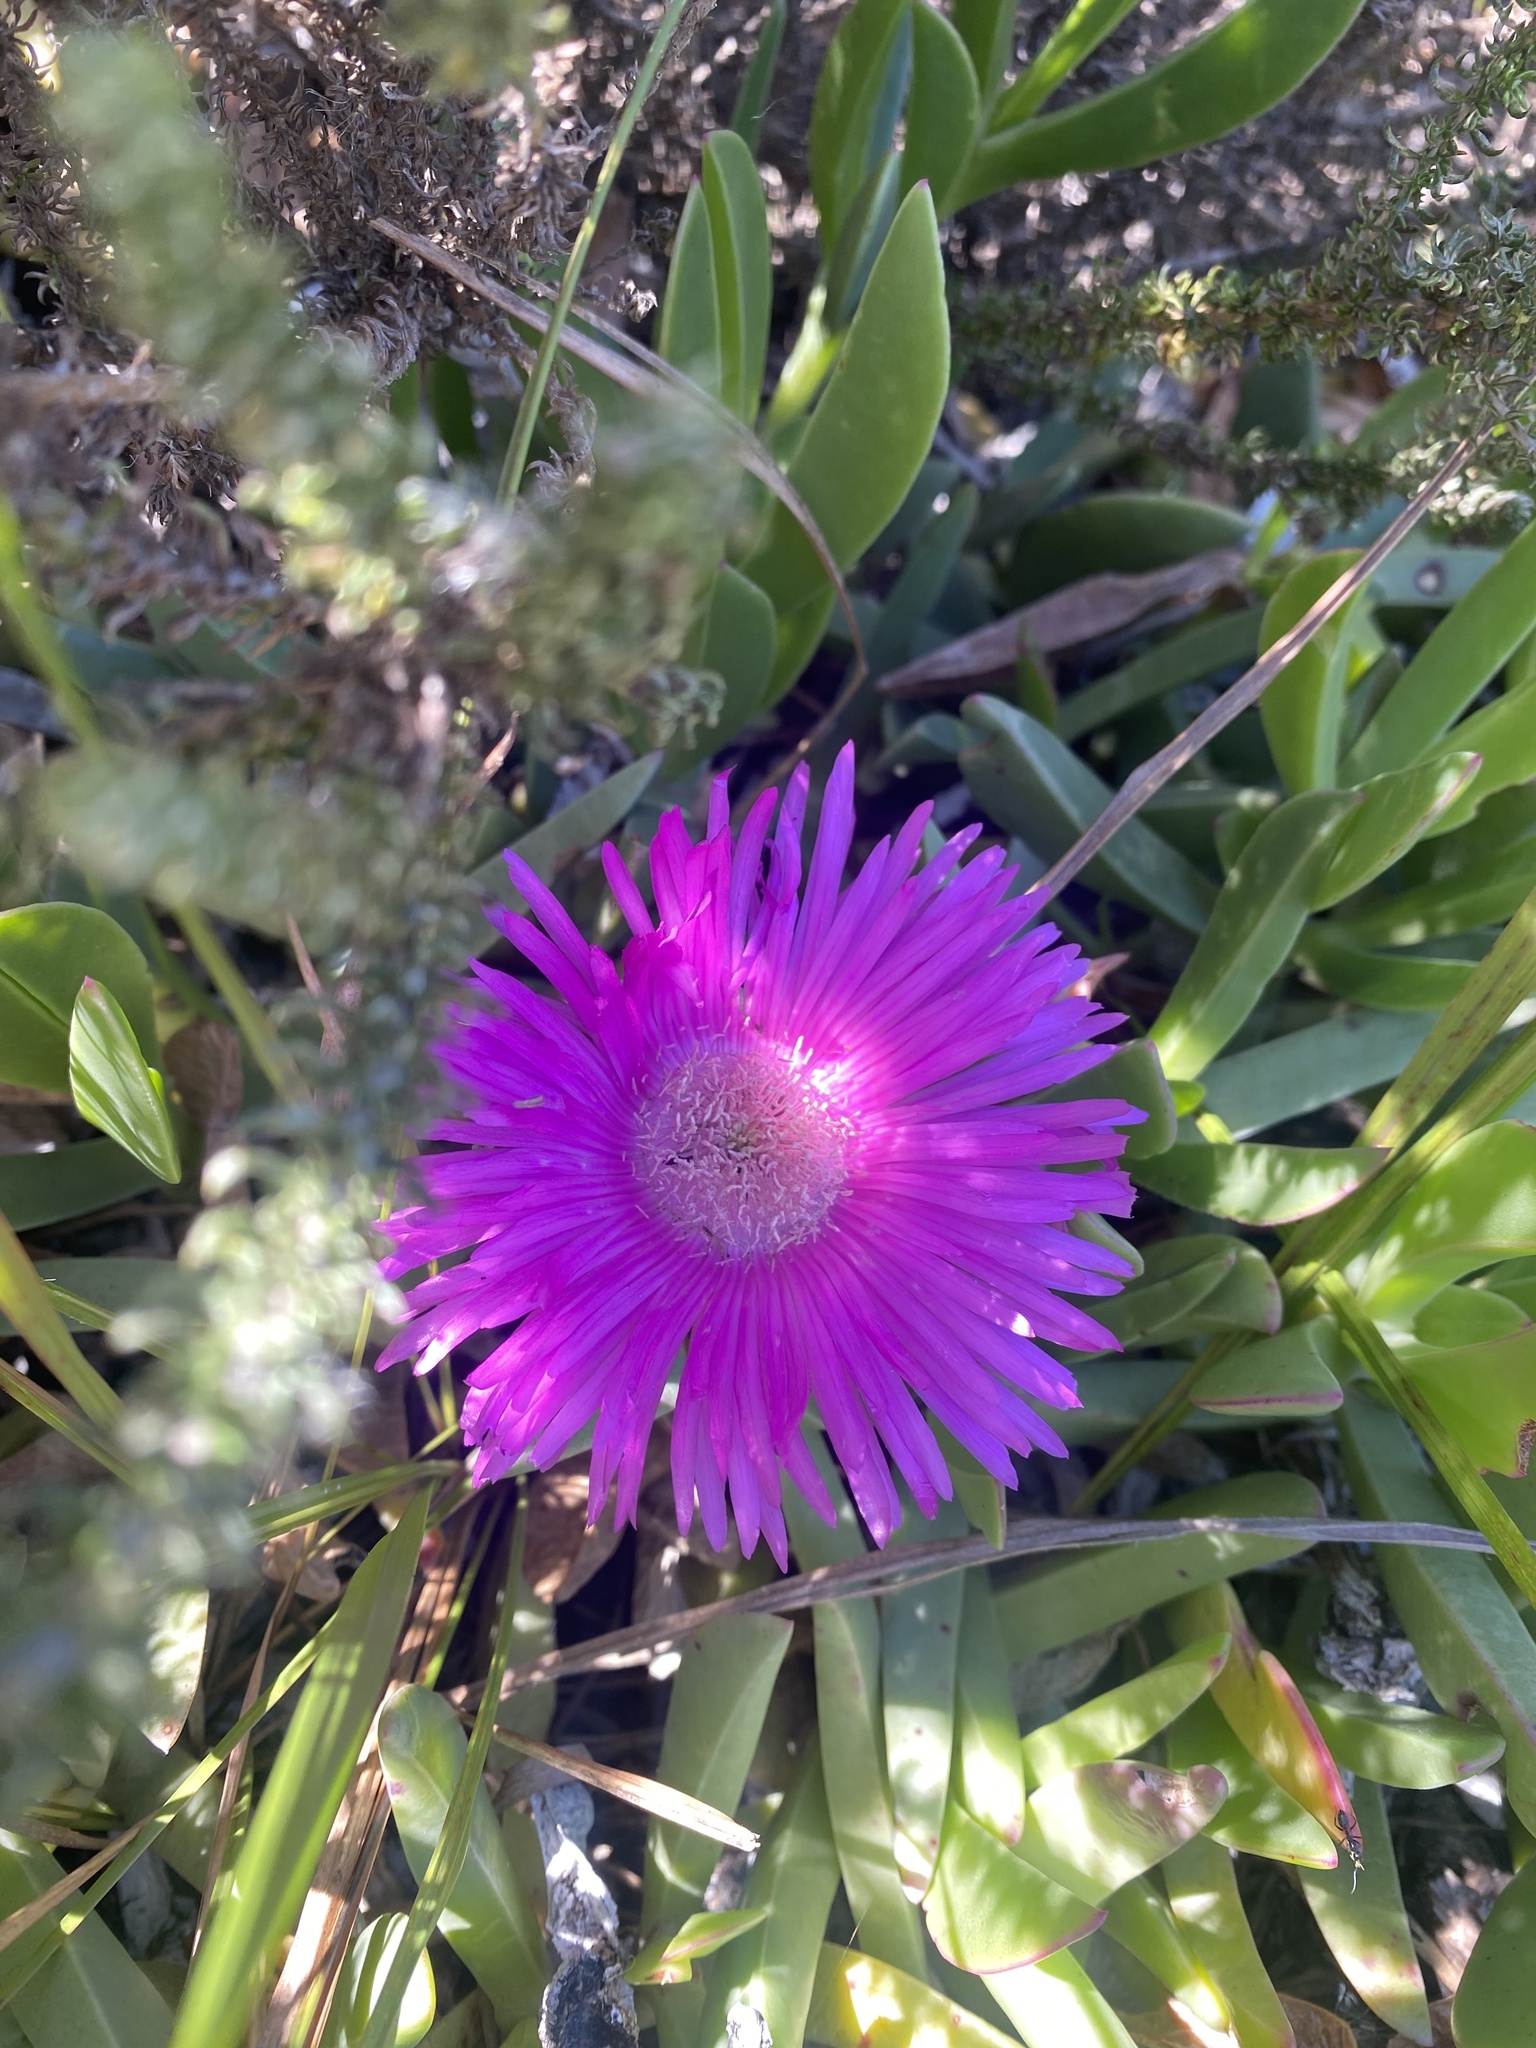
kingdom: Plantae
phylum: Tracheophyta
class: Magnoliopsida
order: Caryophyllales
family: Aizoaceae
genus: Carpobrotus
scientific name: Carpobrotus acinaciformis
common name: Sally-my-handsome
